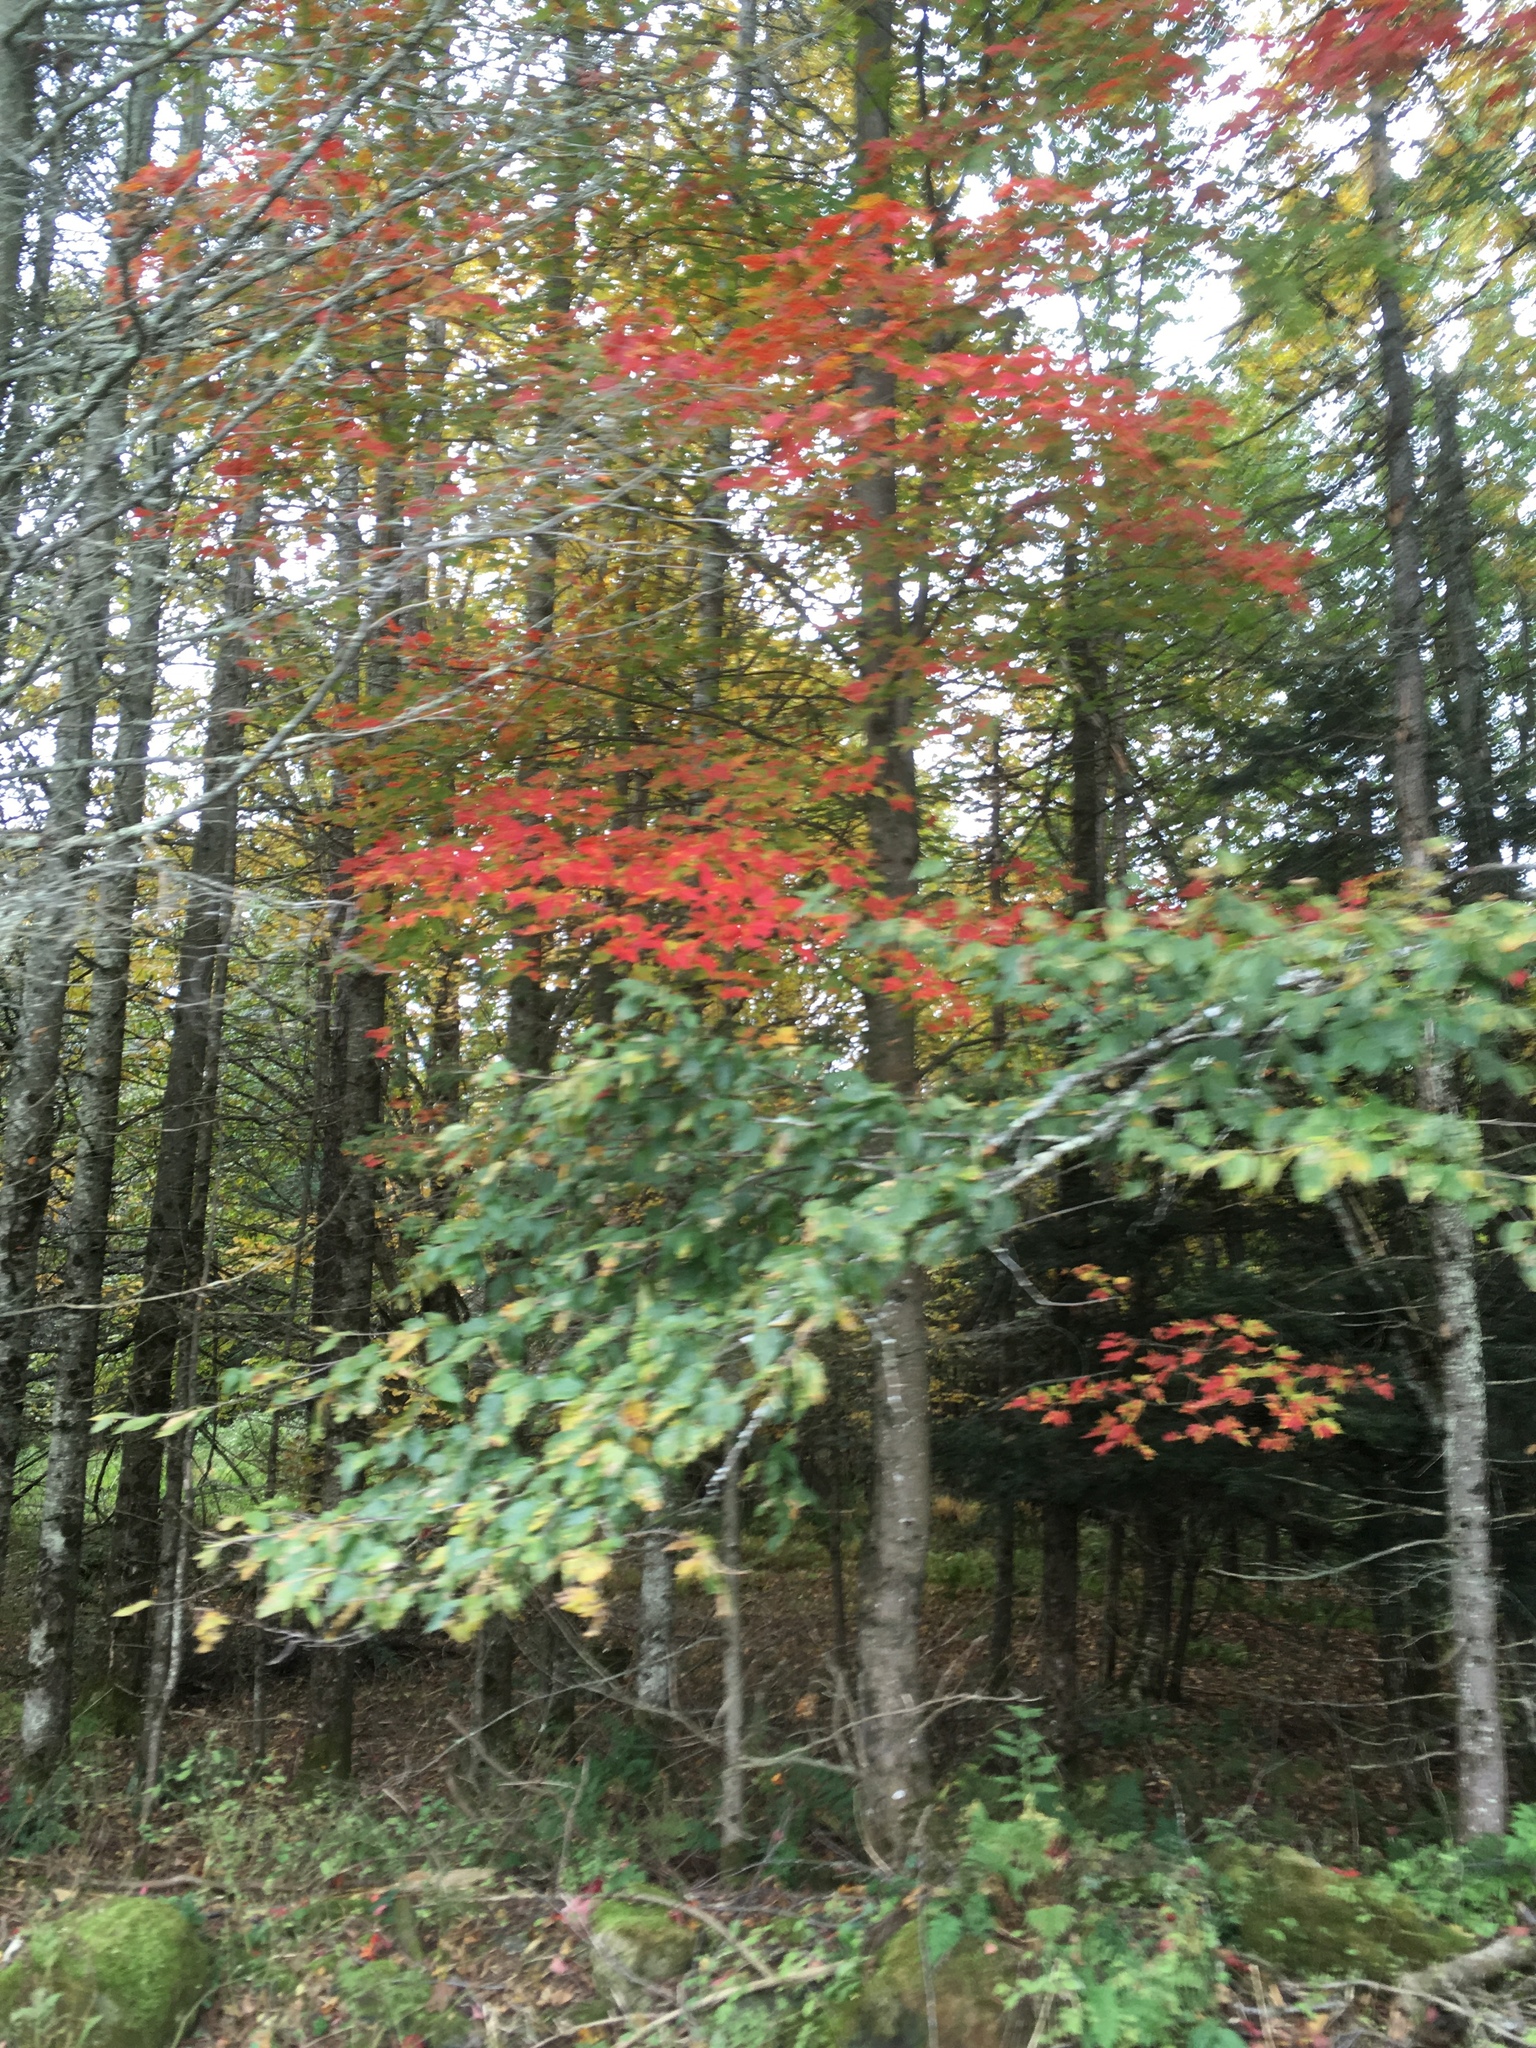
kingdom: Plantae
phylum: Tracheophyta
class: Magnoliopsida
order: Sapindales
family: Sapindaceae
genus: Acer
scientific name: Acer rubrum
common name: Red maple
